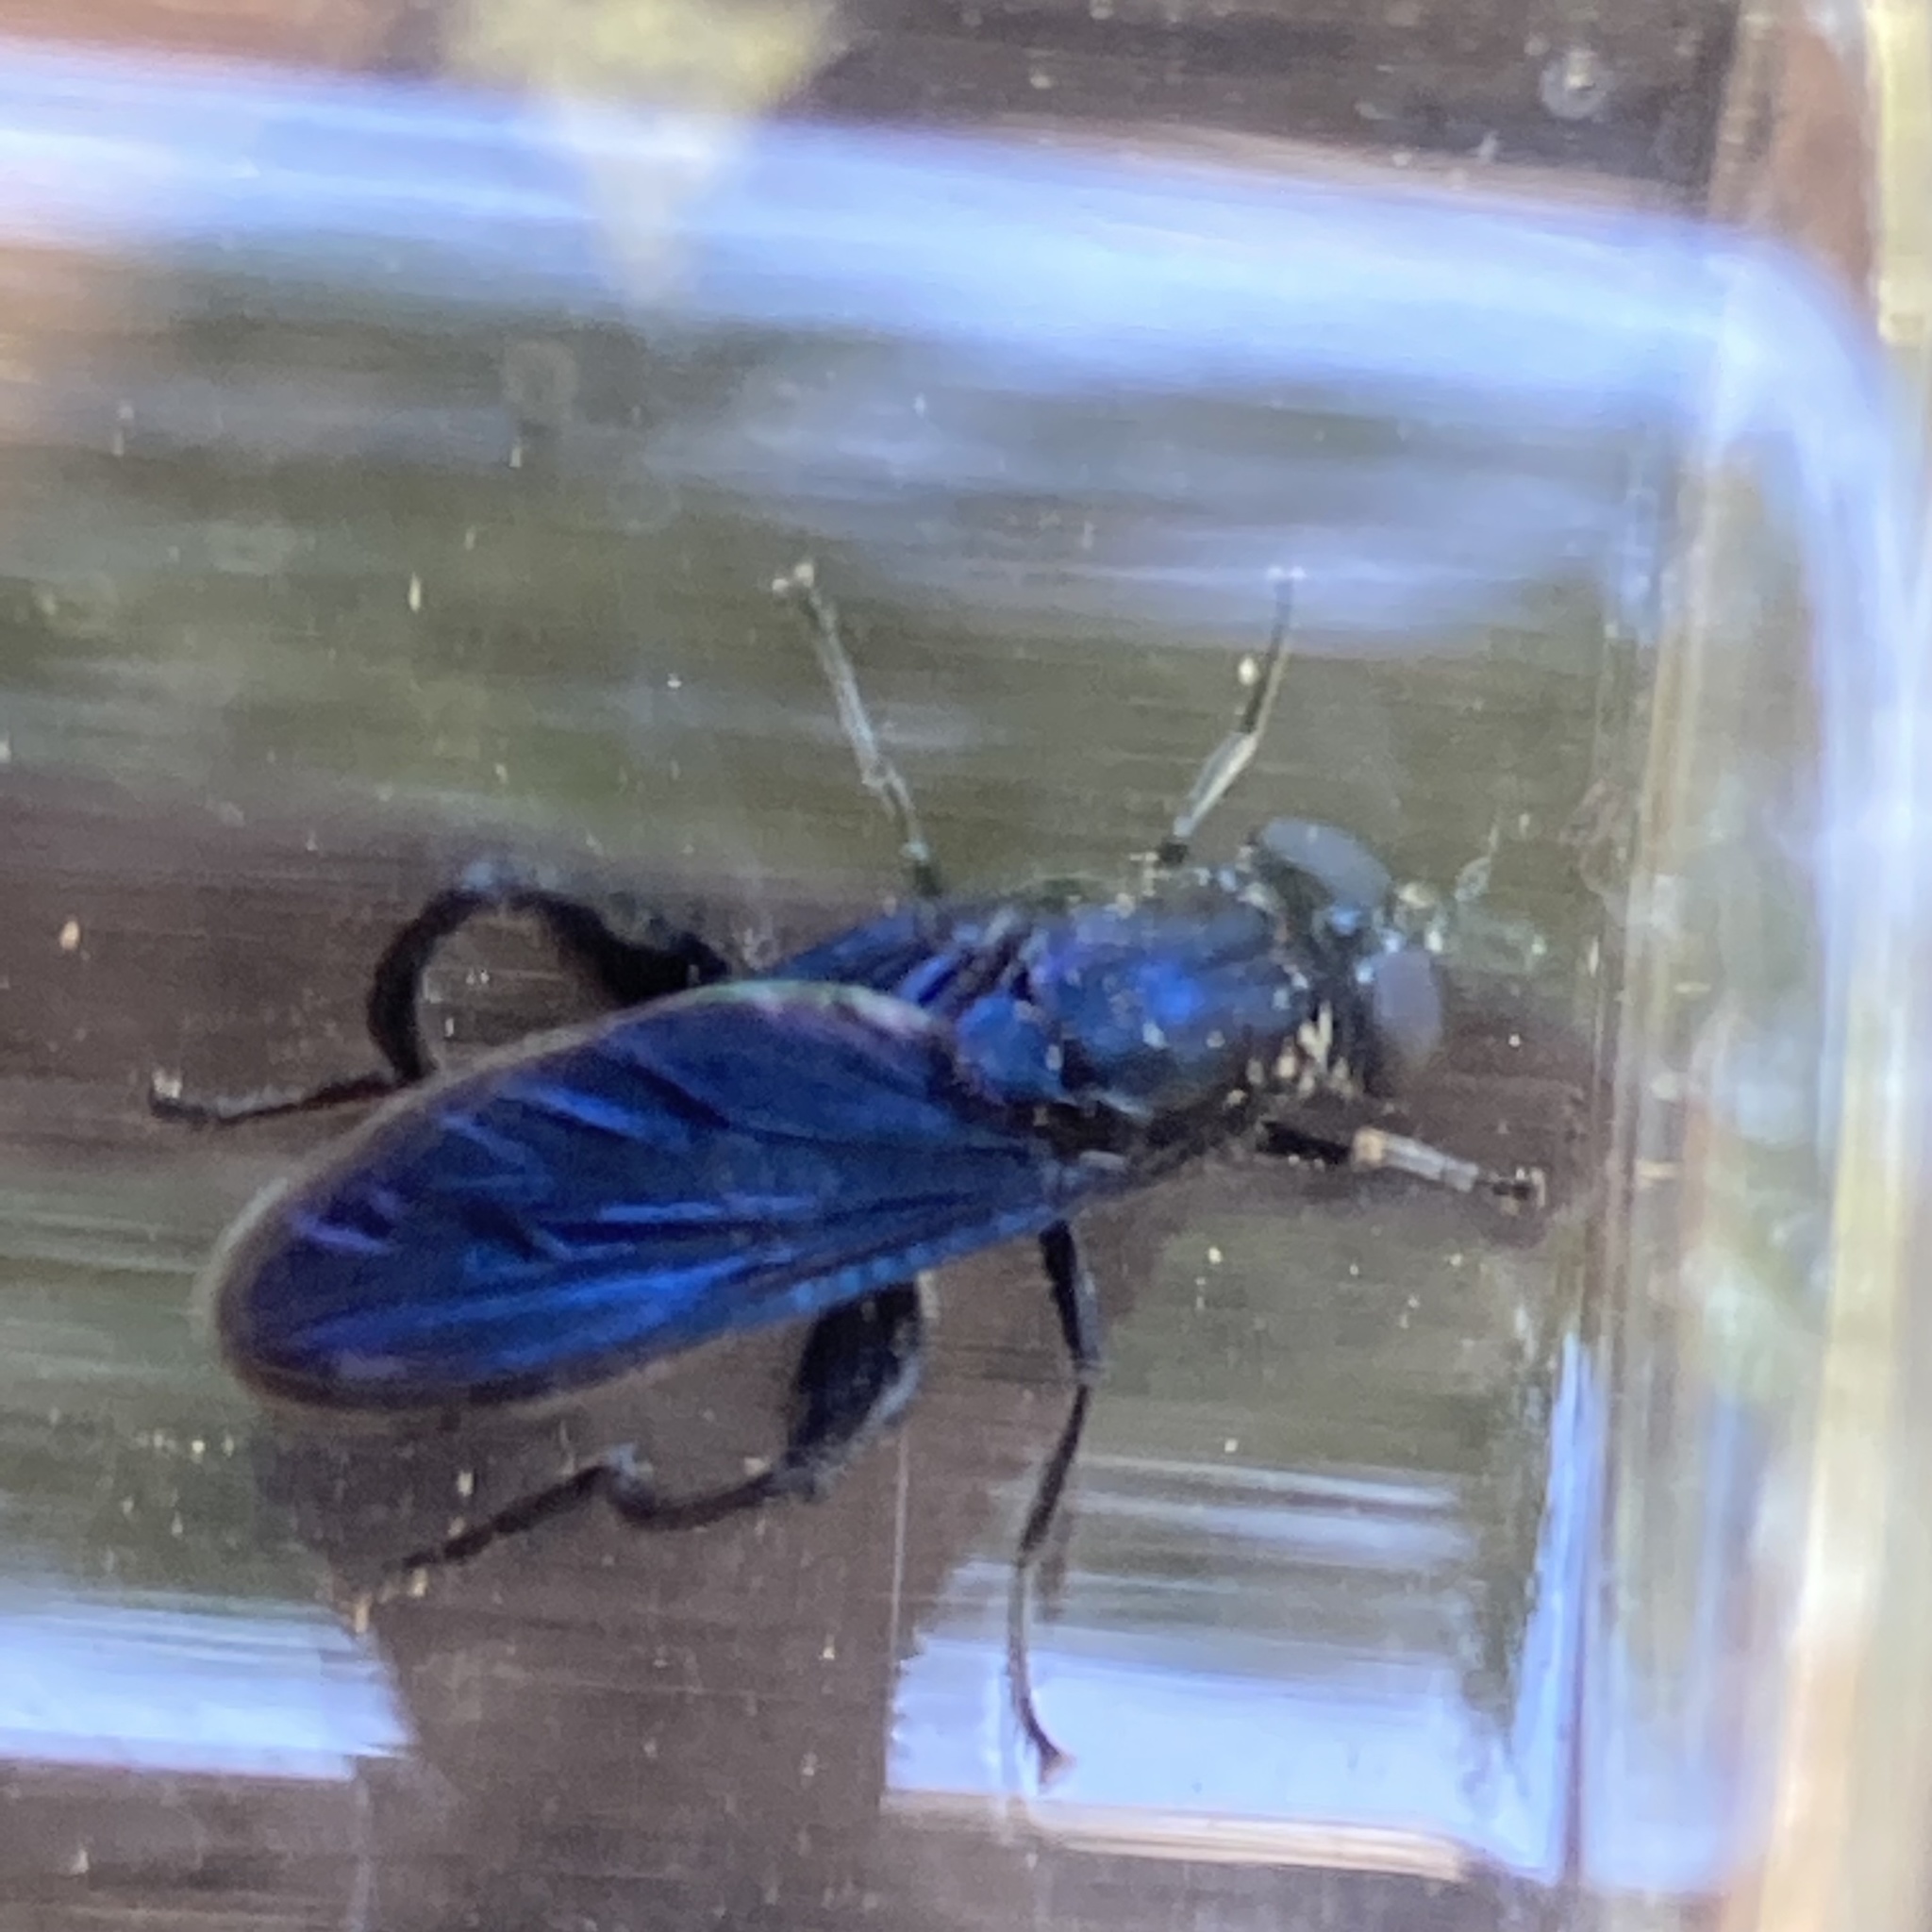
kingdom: Animalia
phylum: Arthropoda
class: Insecta
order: Diptera
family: Syrphidae
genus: Chalcosyrphus
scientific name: Chalcosyrphus chalybeus
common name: Violet leafwalker
